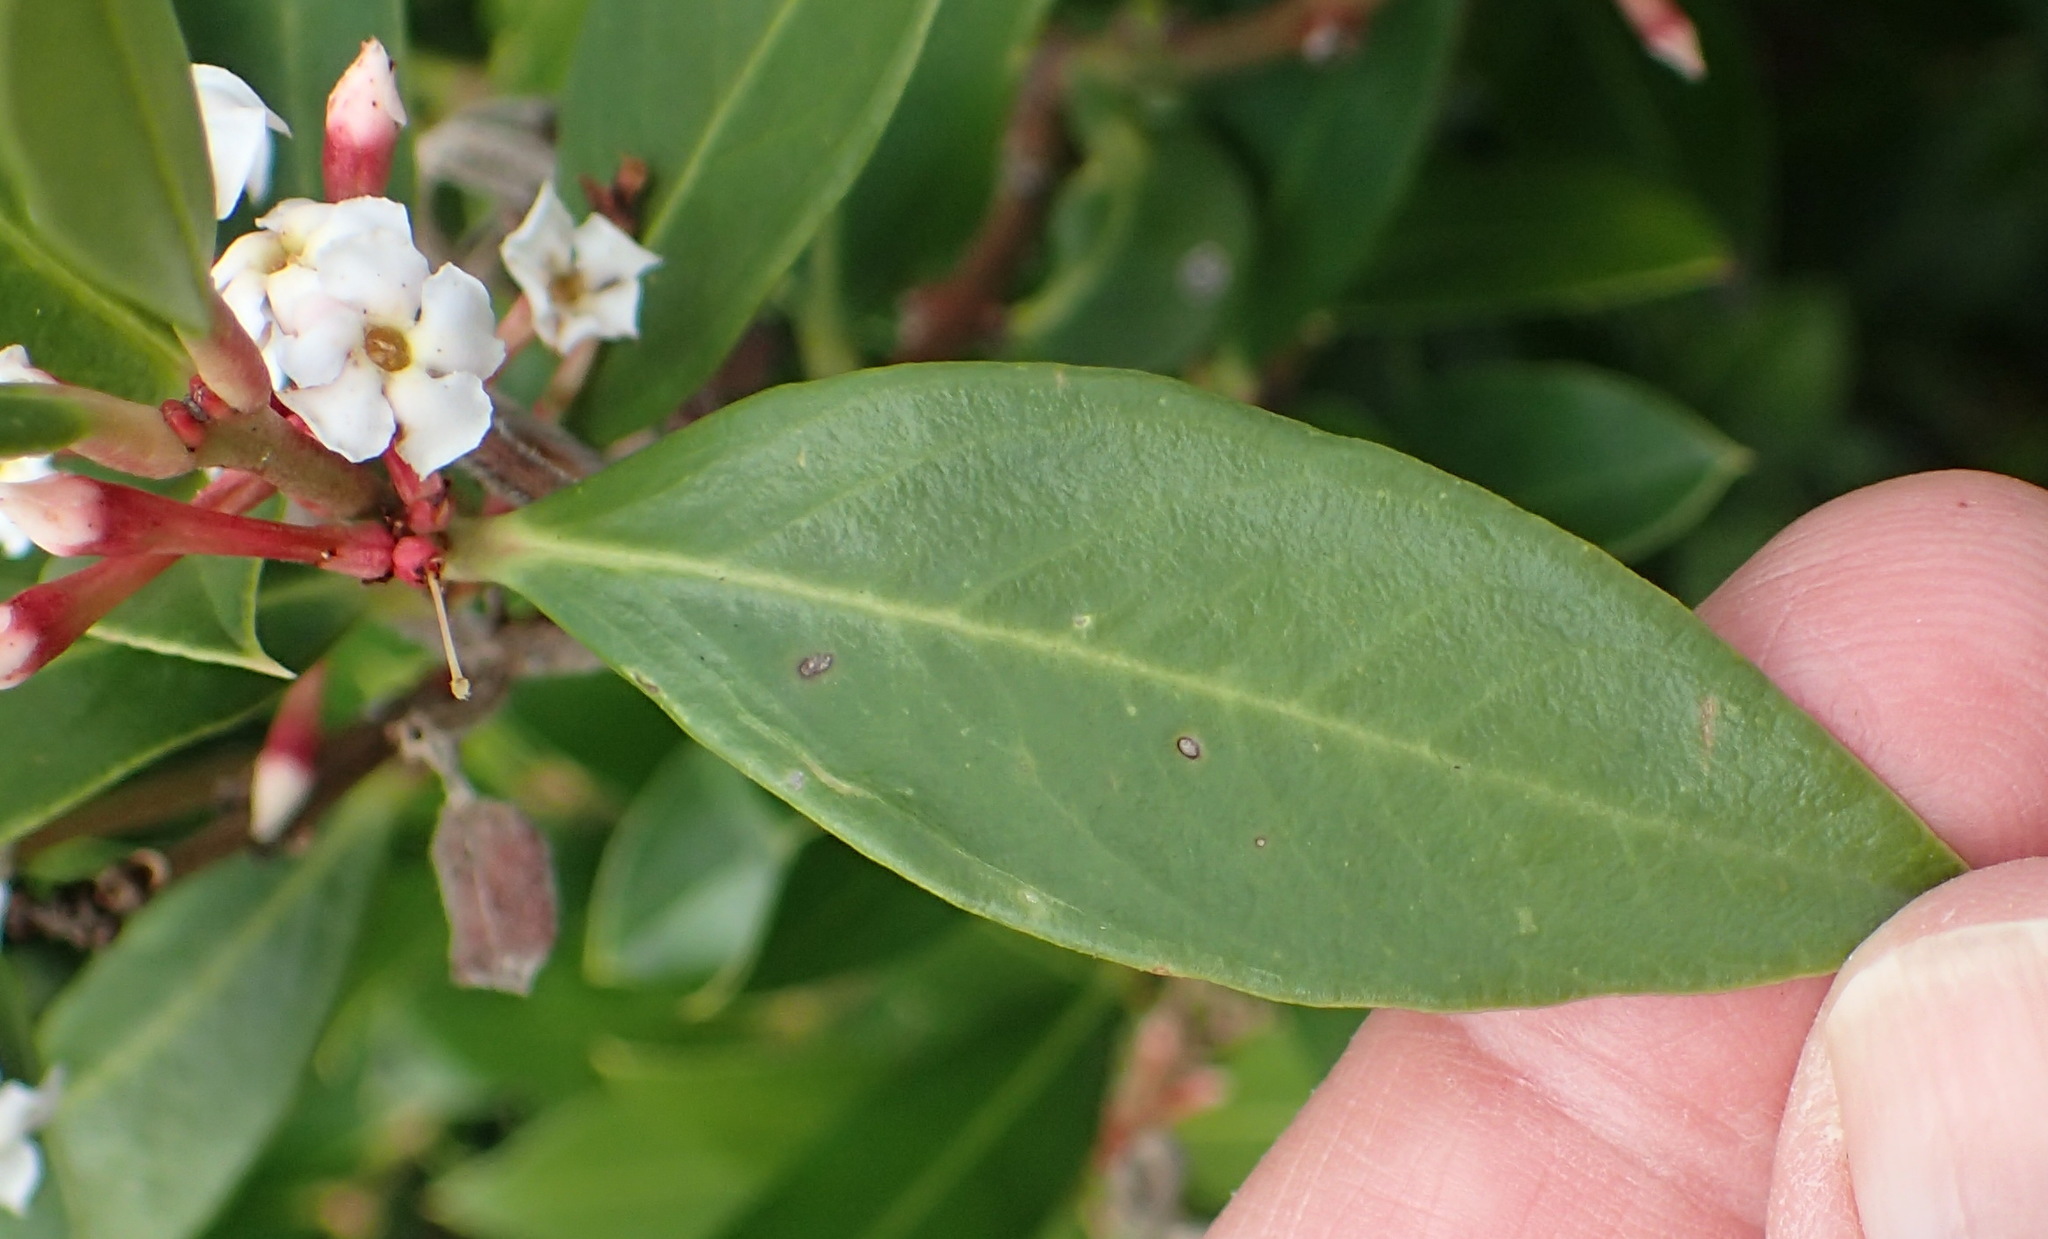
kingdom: Plantae
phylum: Tracheophyta
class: Magnoliopsida
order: Gentianales
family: Apocynaceae
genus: Acokanthera
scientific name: Acokanthera oppositifolia
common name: Bushman's-poison
